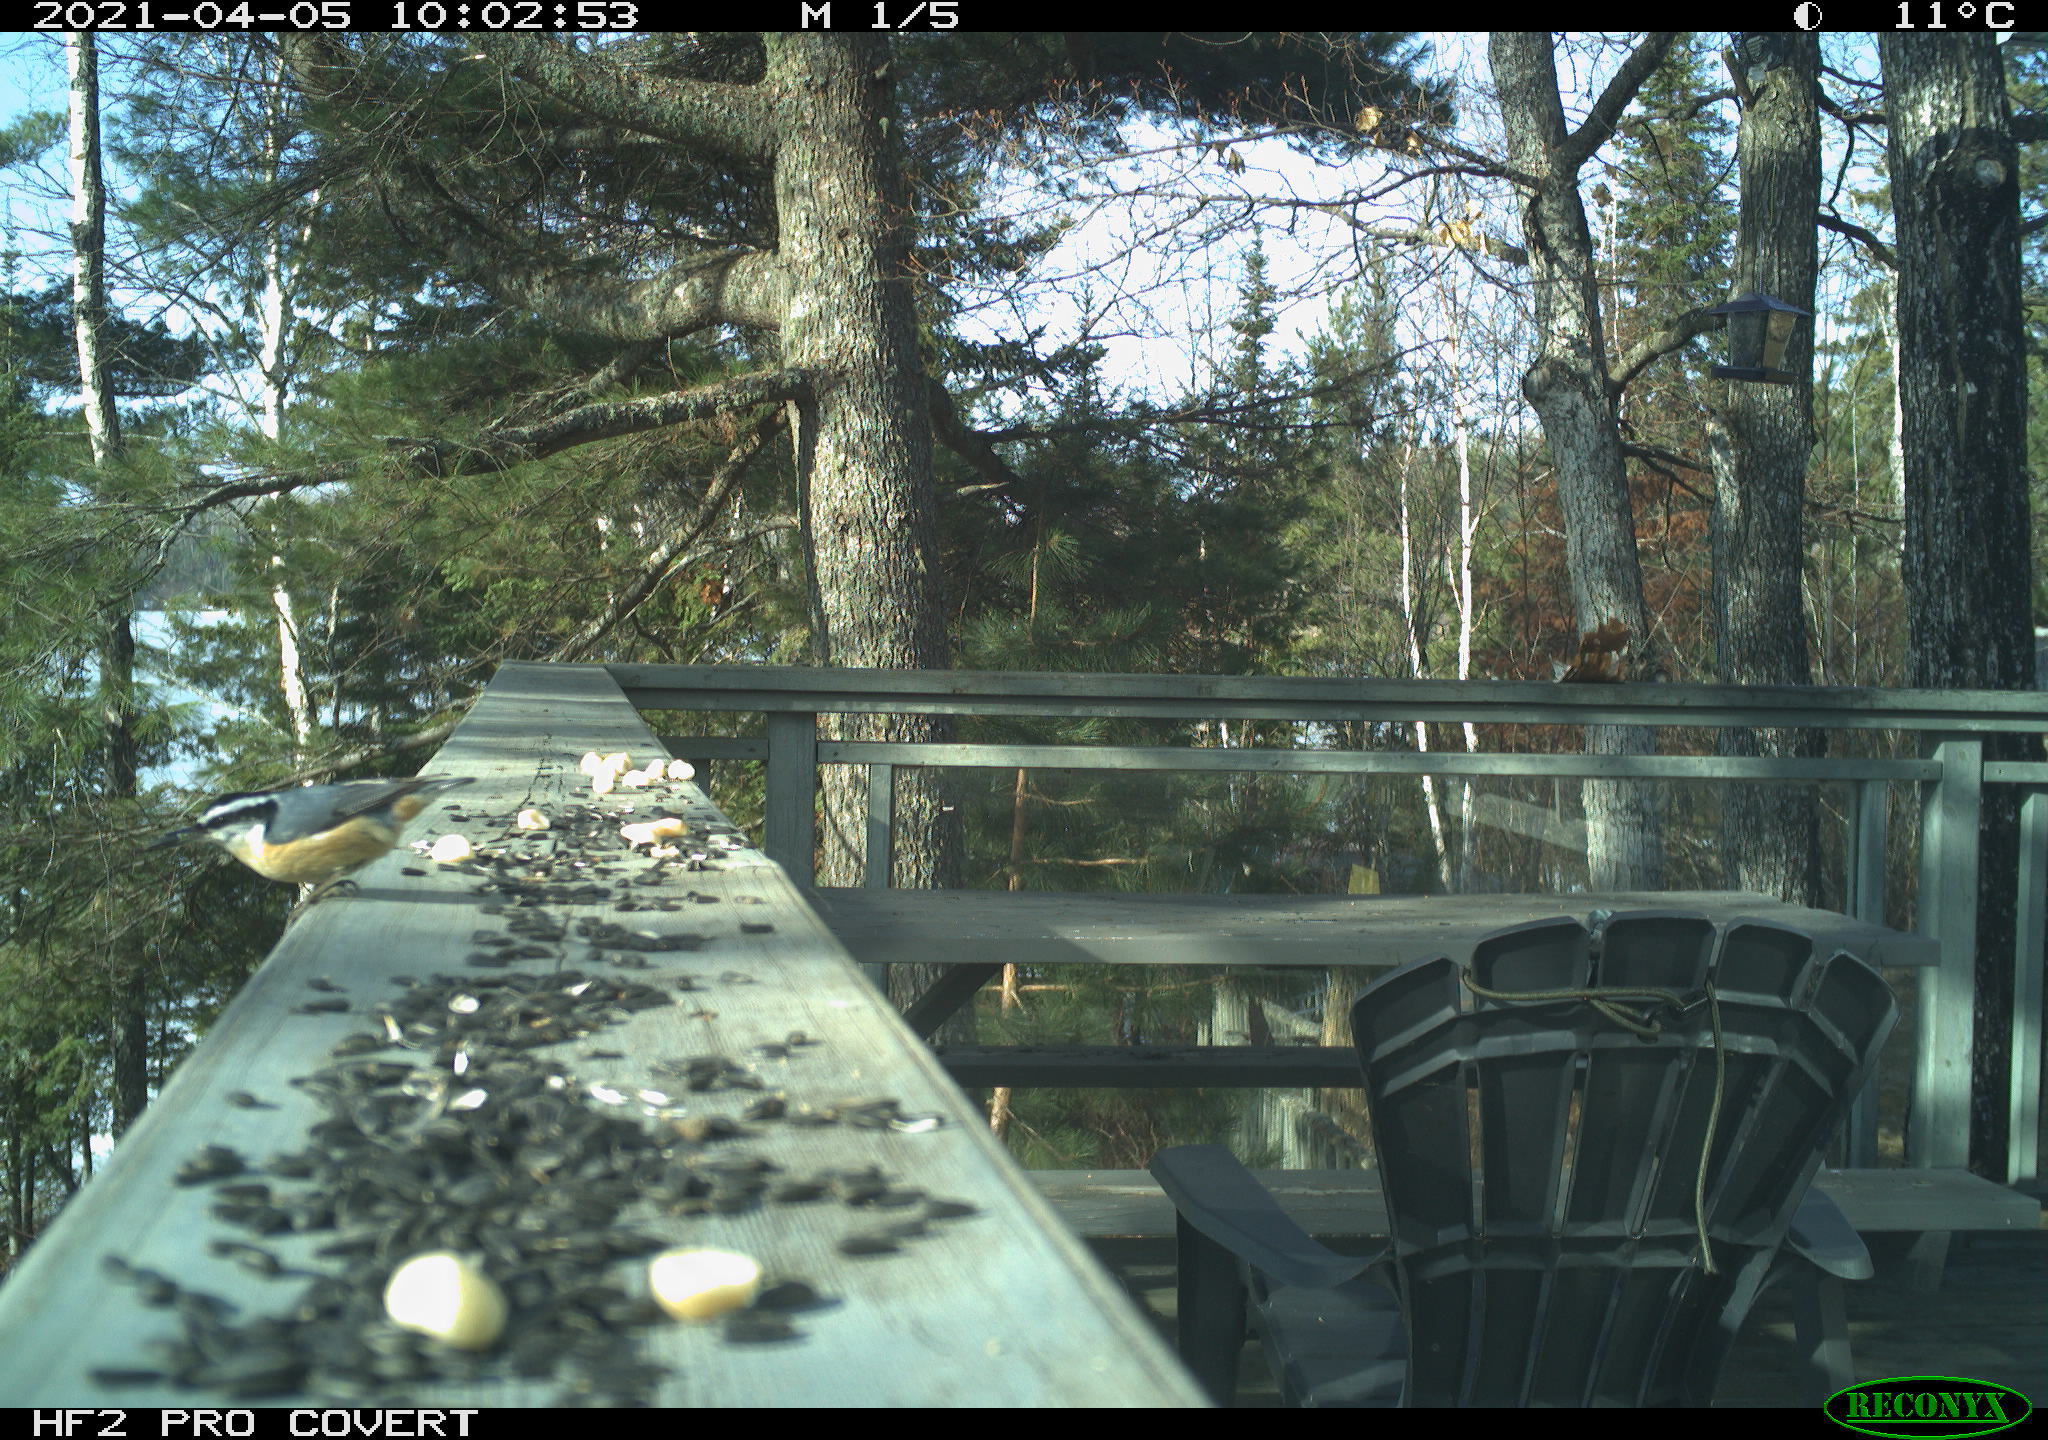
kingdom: Animalia
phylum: Chordata
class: Aves
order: Passeriformes
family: Sittidae
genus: Sitta
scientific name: Sitta canadensis
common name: Red-breasted nuthatch
